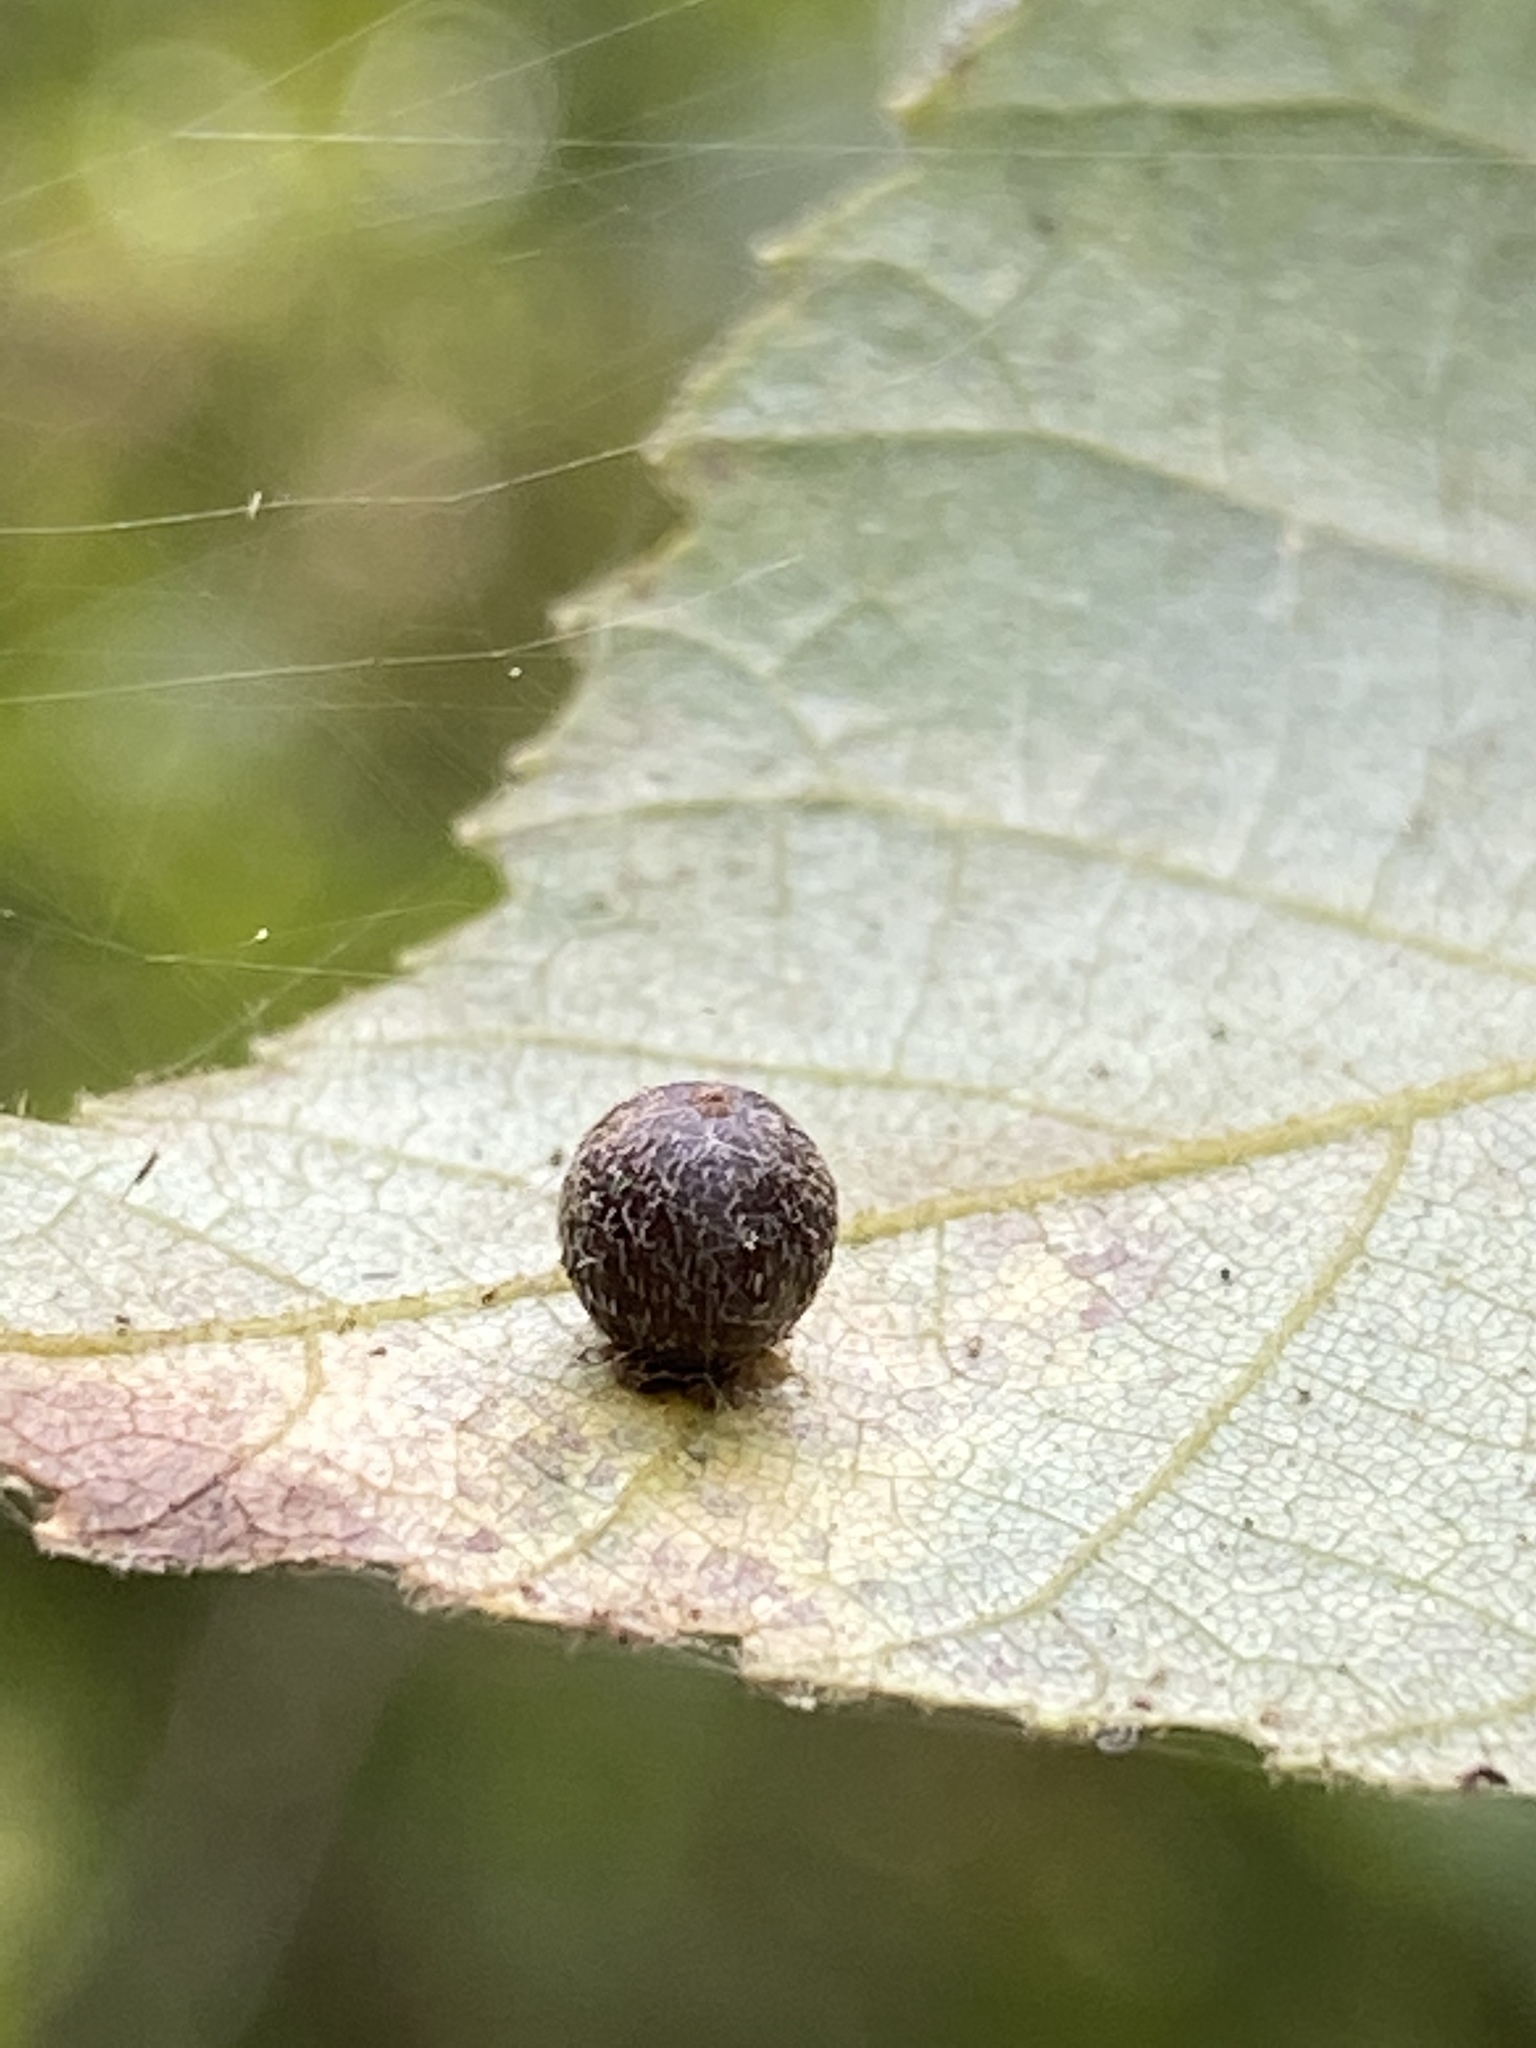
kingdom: Animalia
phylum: Arthropoda
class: Insecta
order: Diptera
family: Cecidomyiidae
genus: Caryomyia
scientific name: Caryomyia deflexipili
